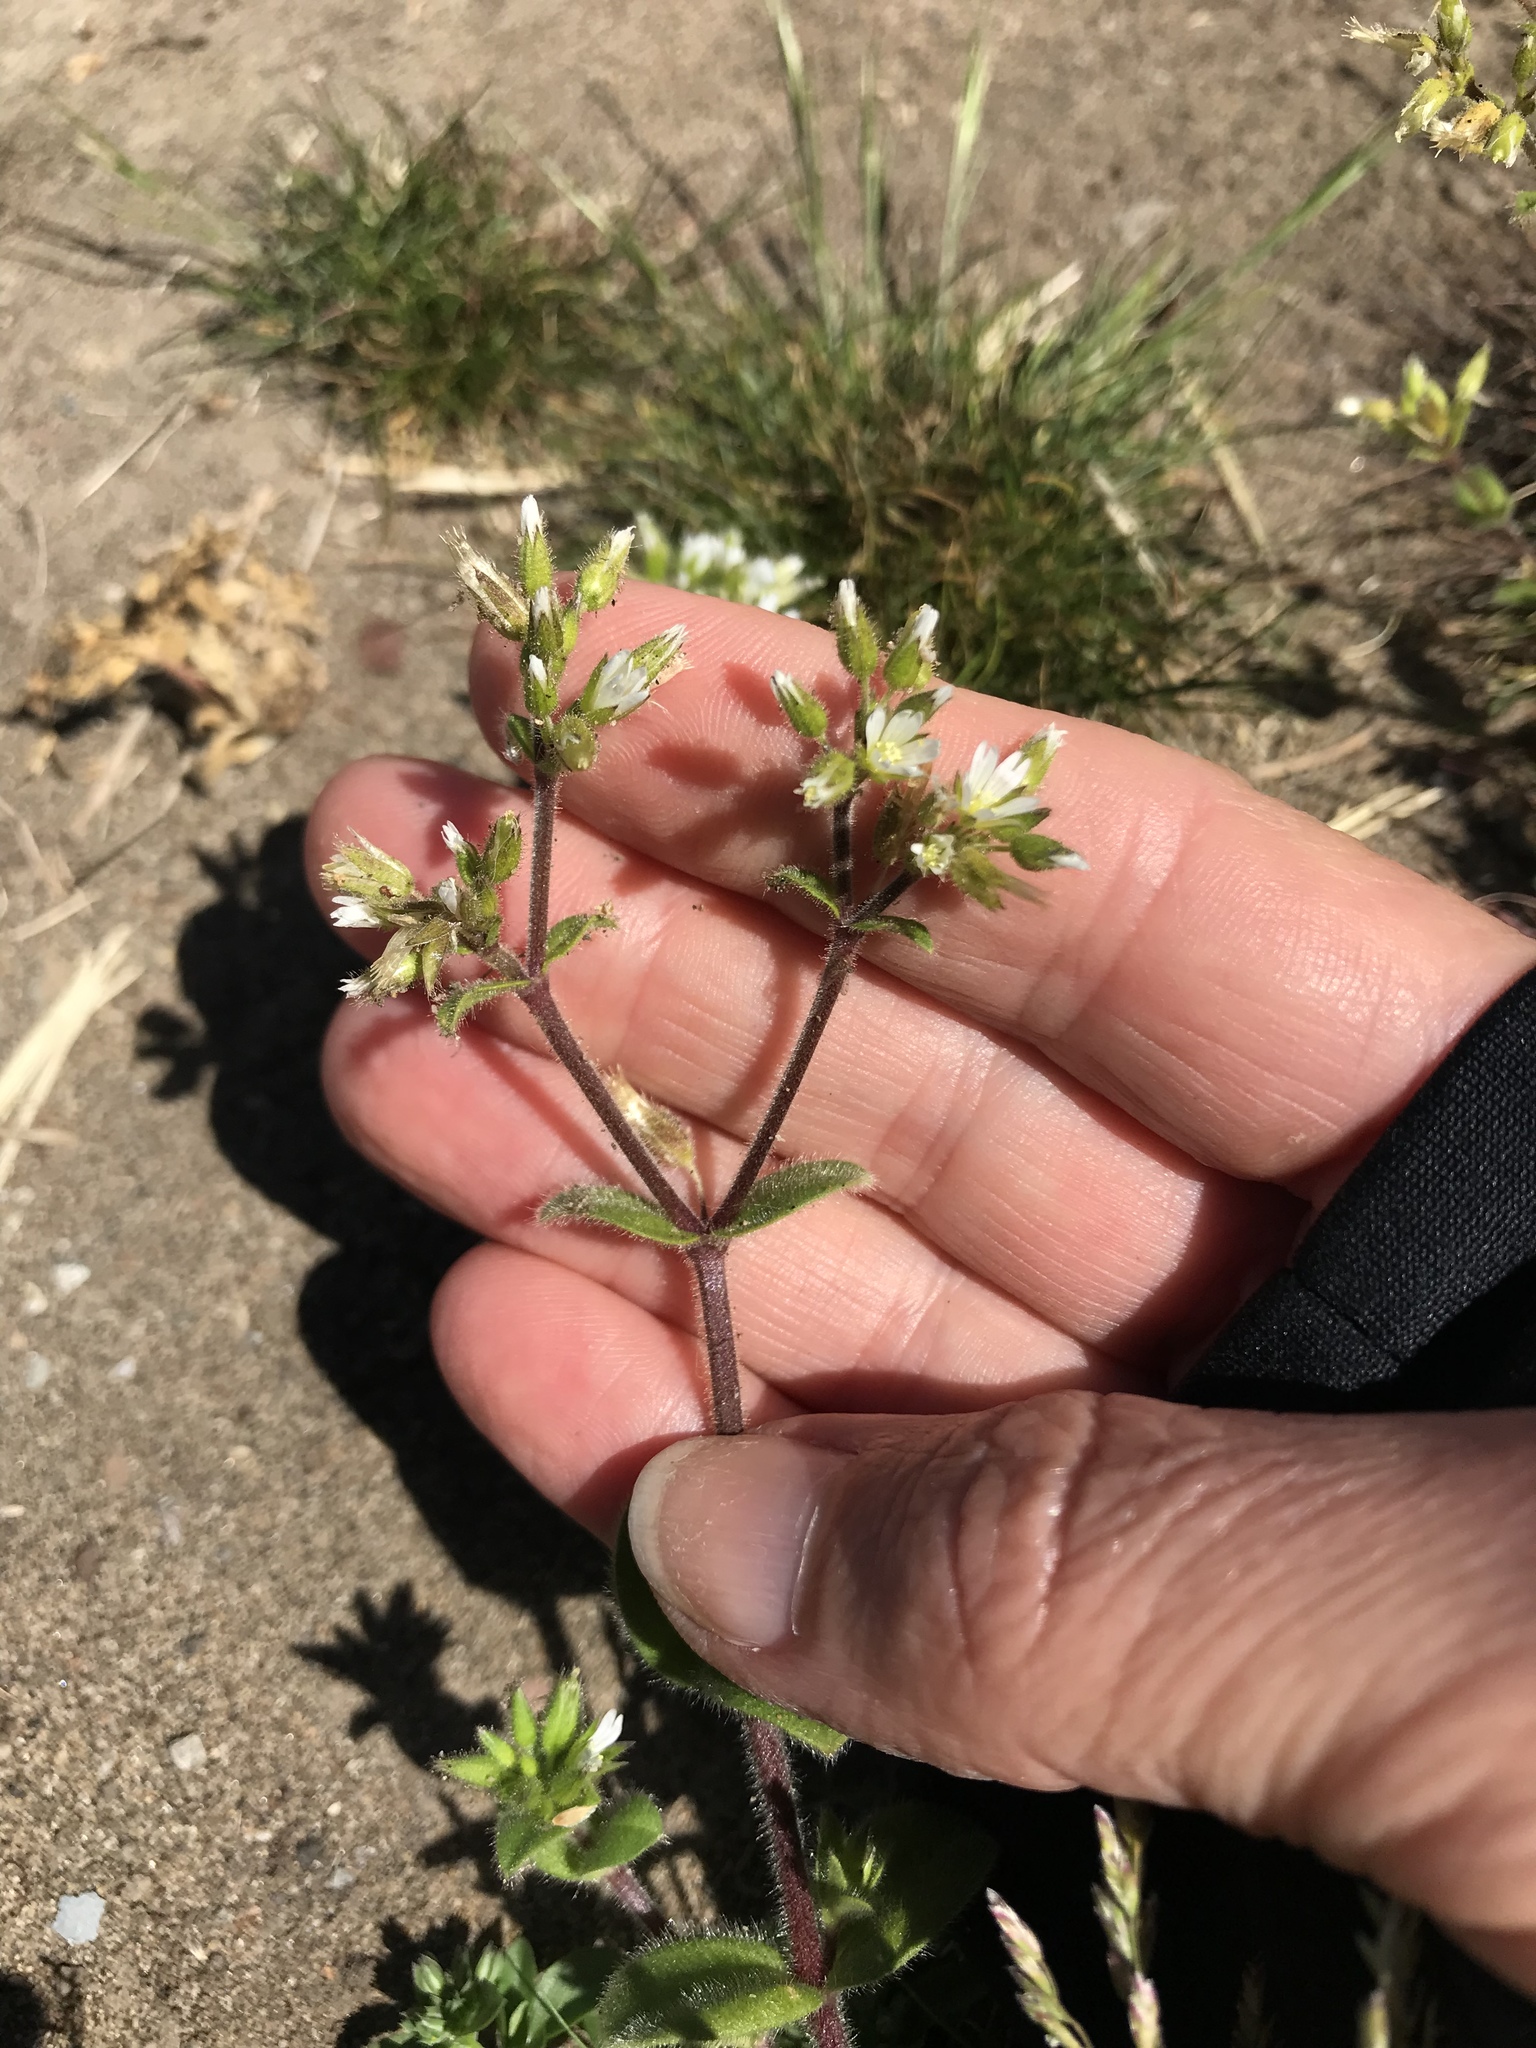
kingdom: Plantae
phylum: Tracheophyta
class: Magnoliopsida
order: Caryophyllales
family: Caryophyllaceae
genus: Cerastium
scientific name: Cerastium glomeratum
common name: Sticky chickweed
